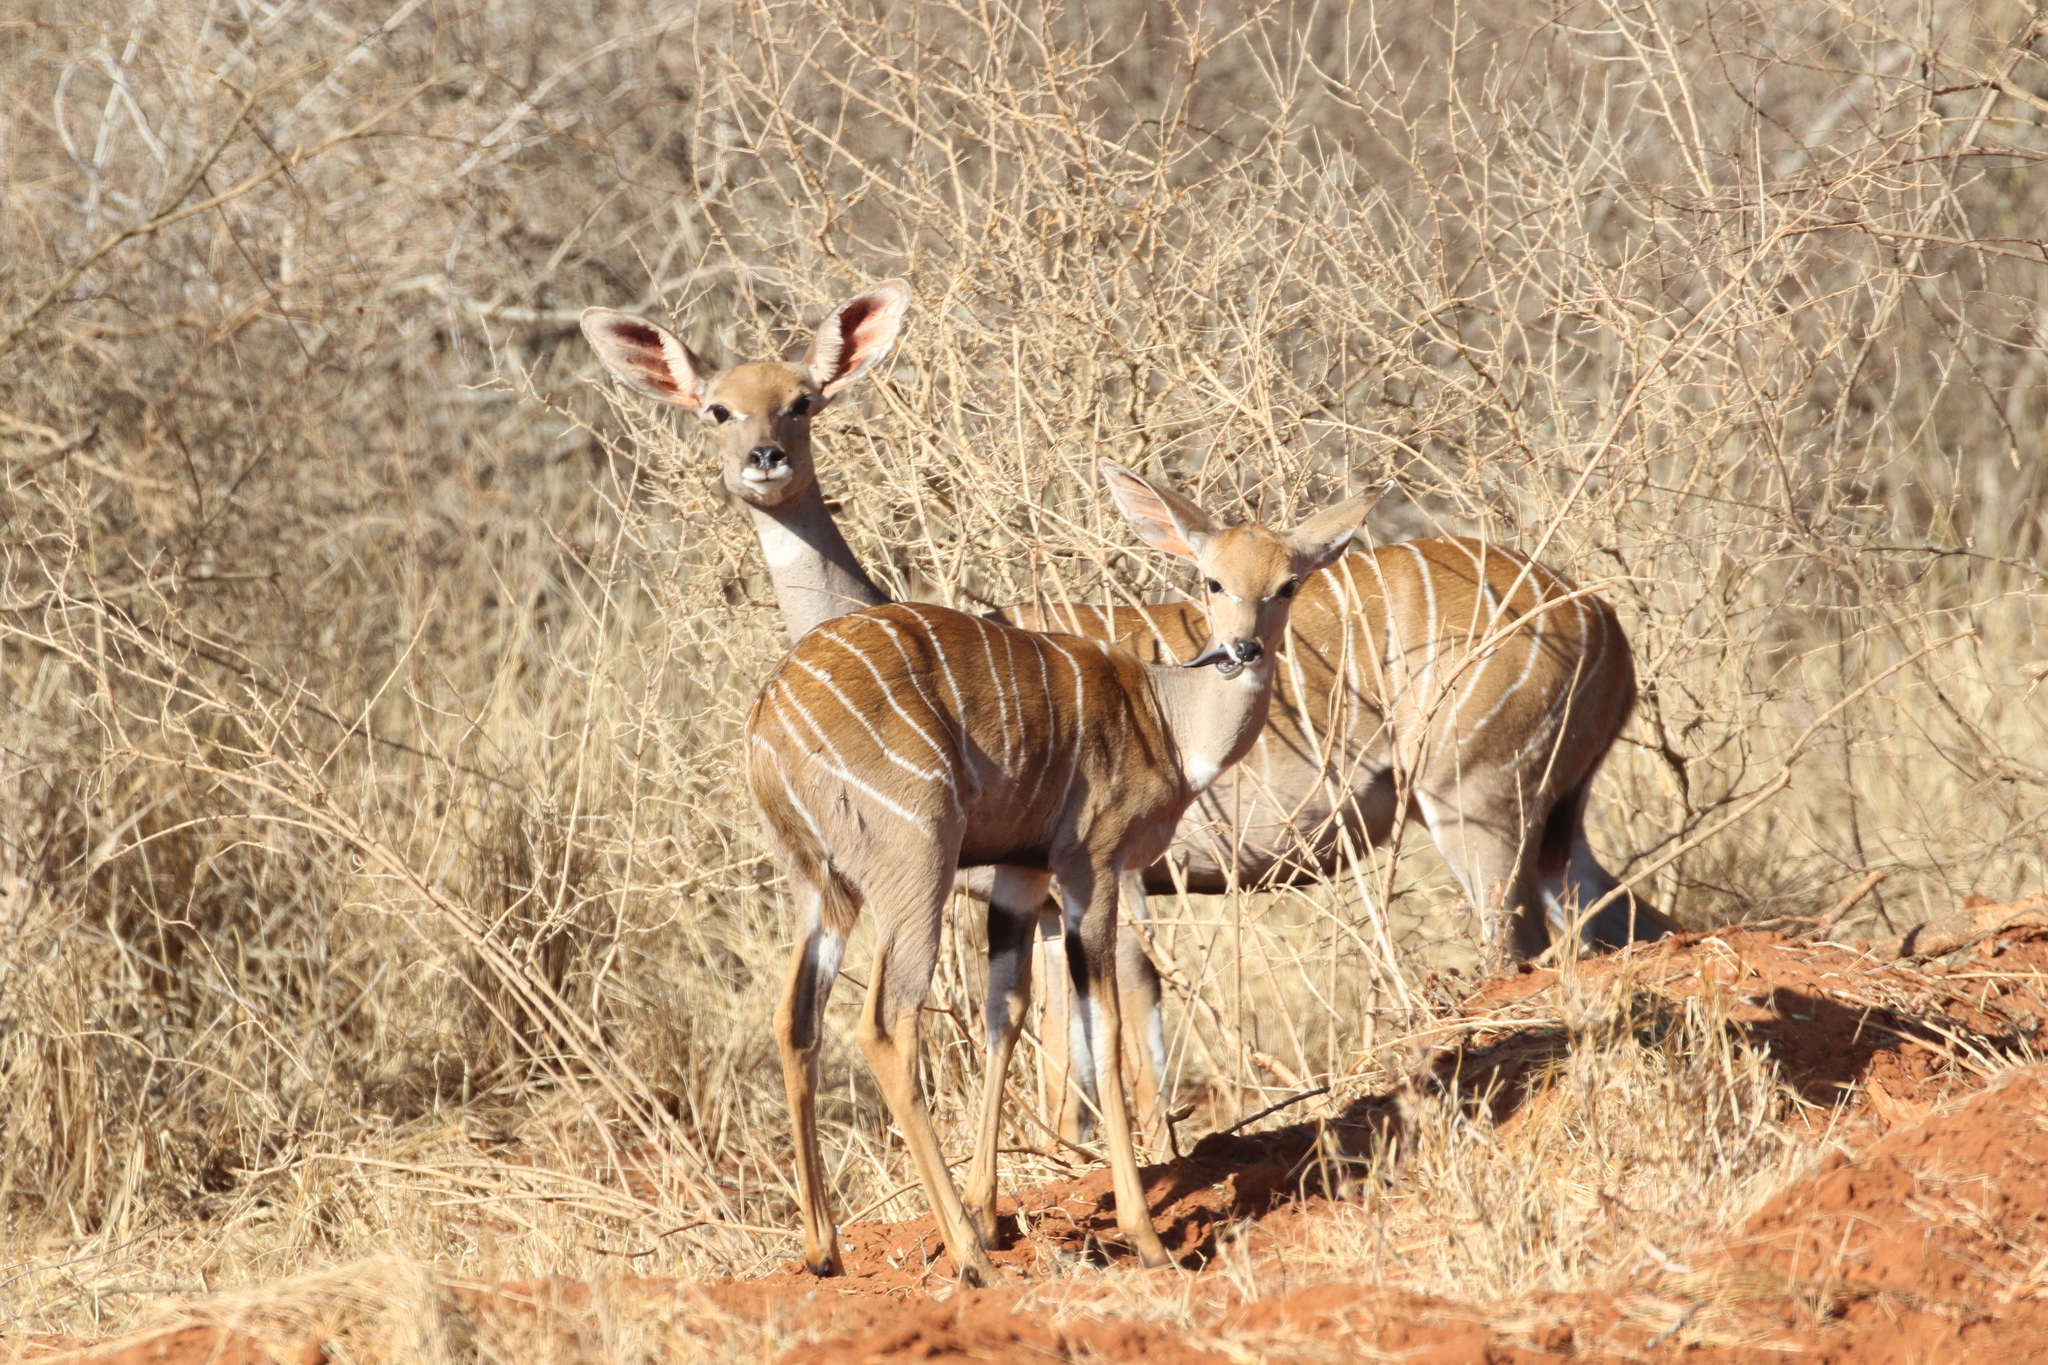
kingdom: Animalia
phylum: Chordata
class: Mammalia
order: Artiodactyla
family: Bovidae
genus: Tragelaphus
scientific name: Tragelaphus imberbis
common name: Lesser kudu
